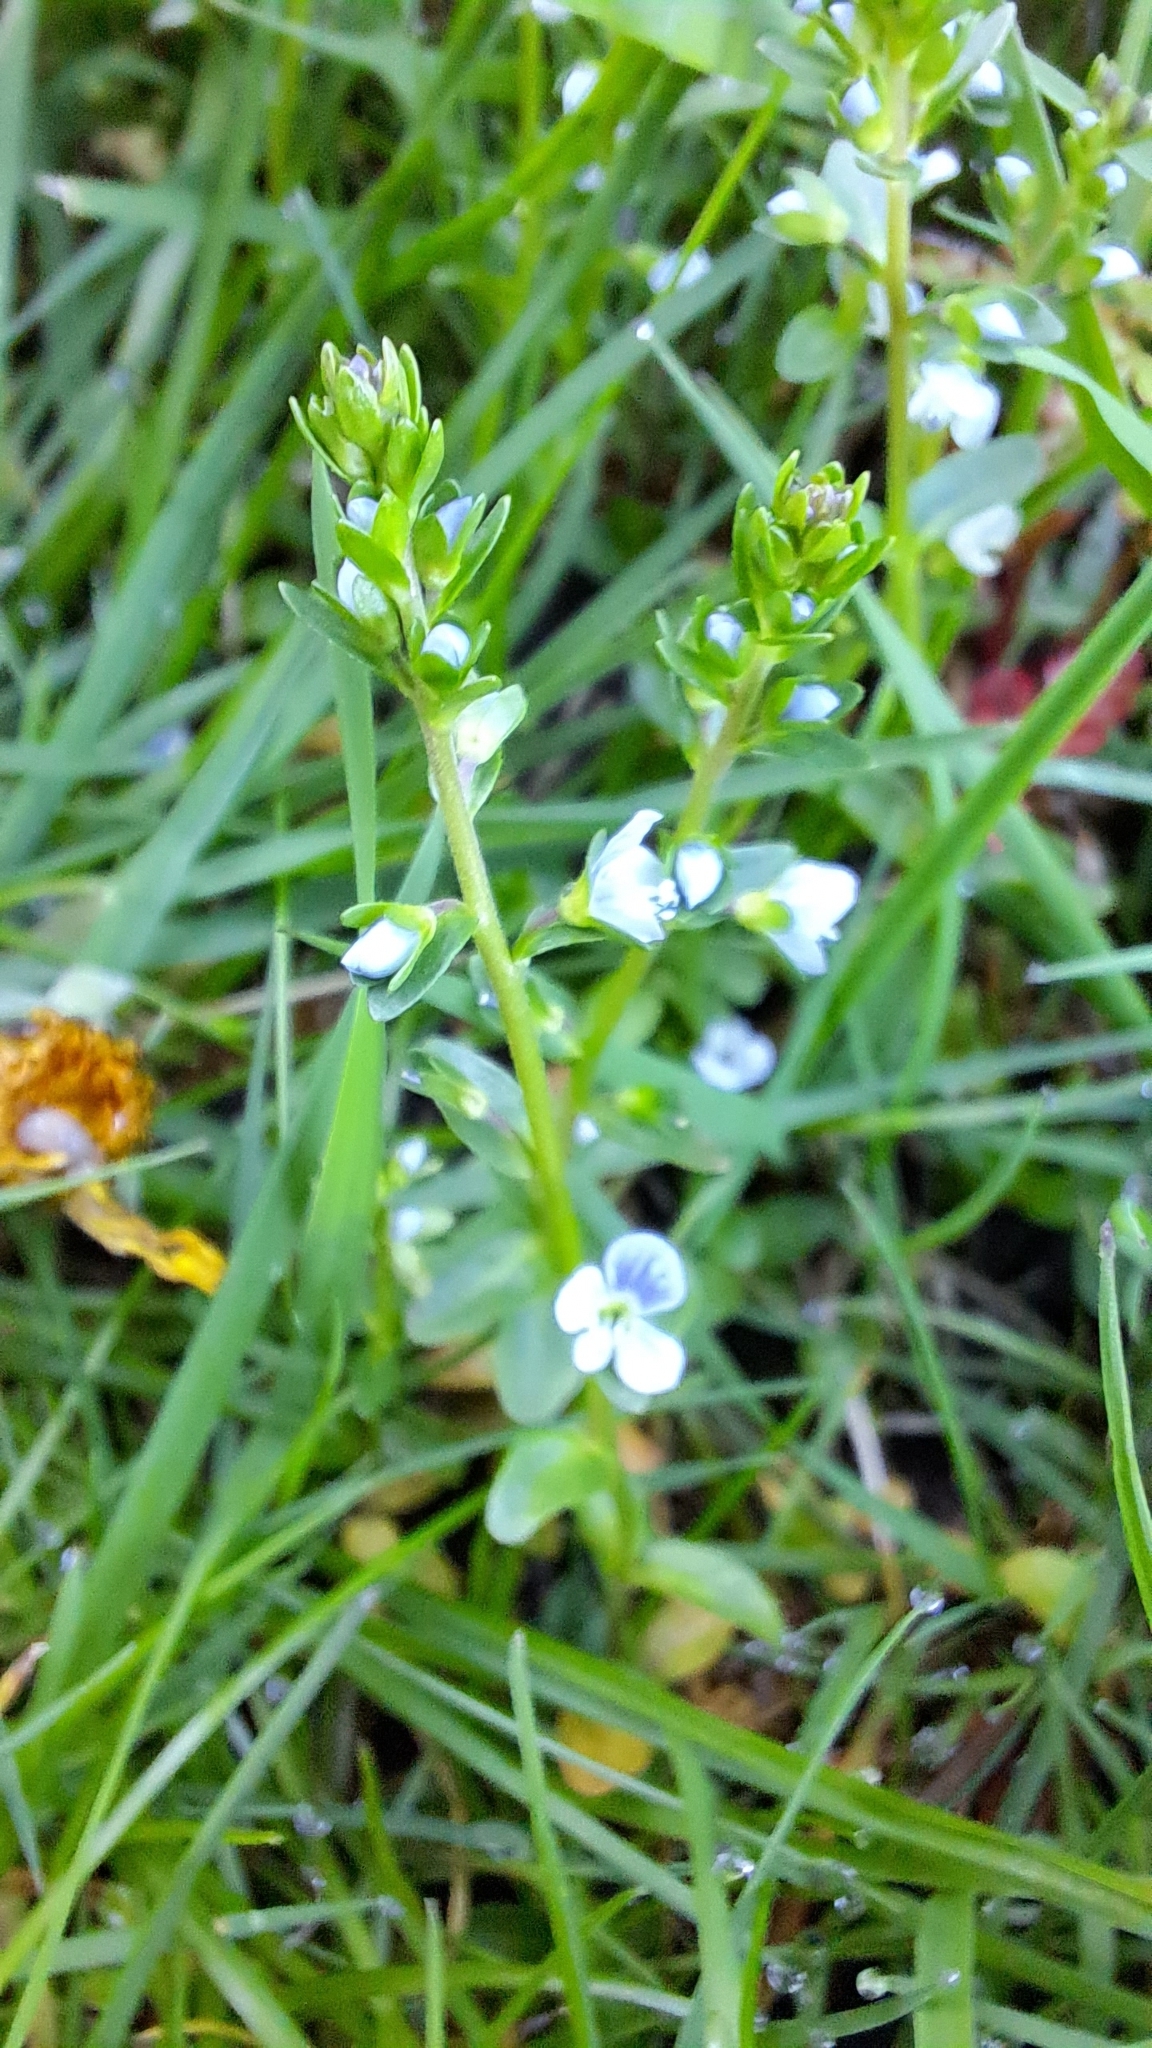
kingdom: Plantae
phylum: Tracheophyta
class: Magnoliopsida
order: Lamiales
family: Plantaginaceae
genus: Veronica
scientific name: Veronica serpyllifolia
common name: Thyme-leaved speedwell
